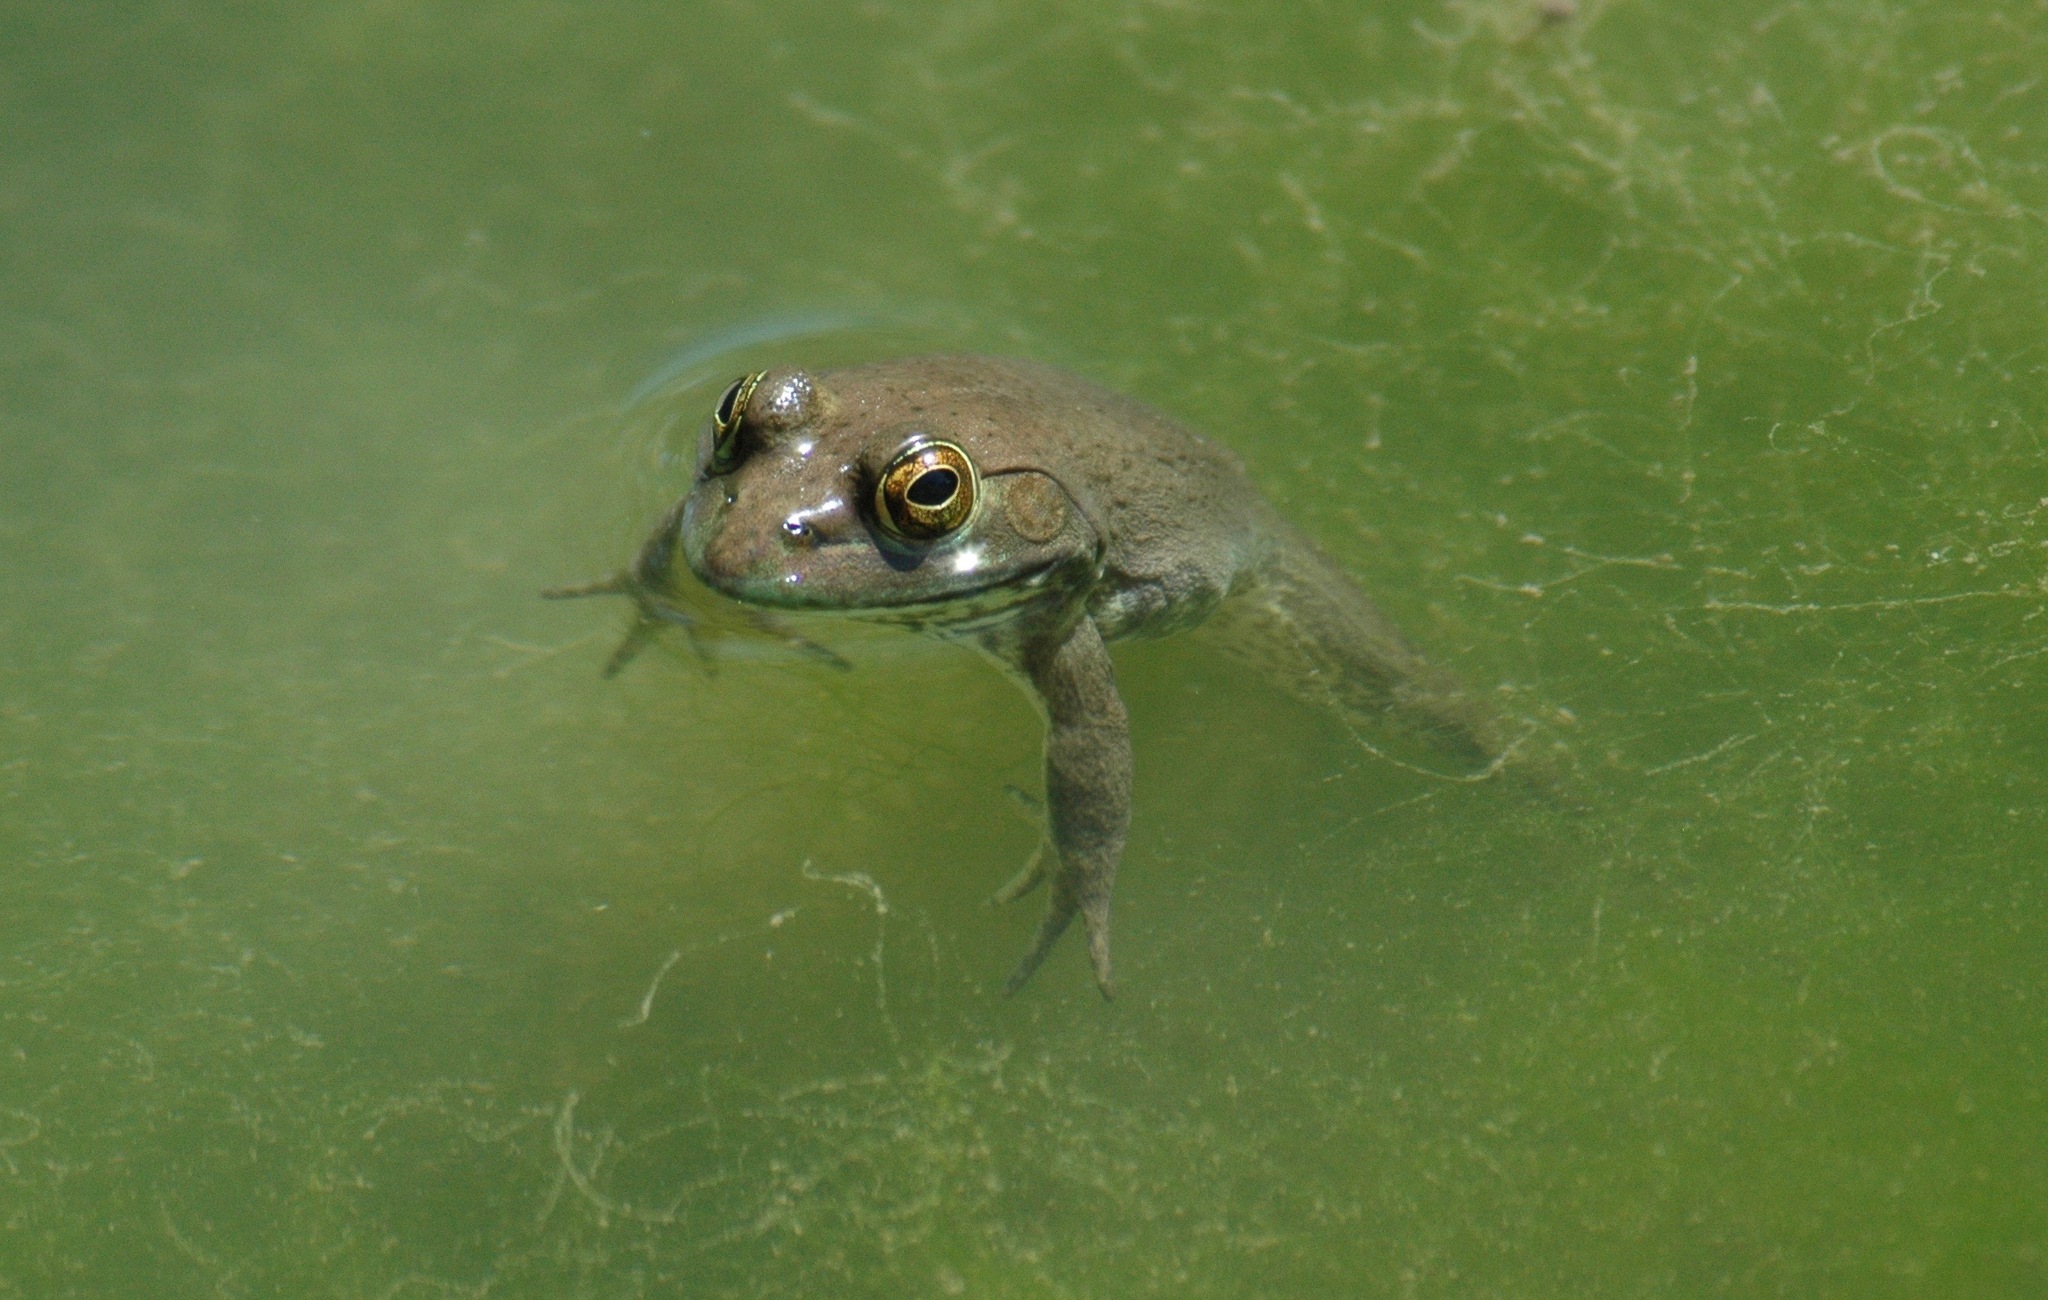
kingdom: Animalia
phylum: Chordata
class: Amphibia
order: Anura
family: Ranidae
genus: Lithobates
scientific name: Lithobates catesbeianus
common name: American bullfrog
